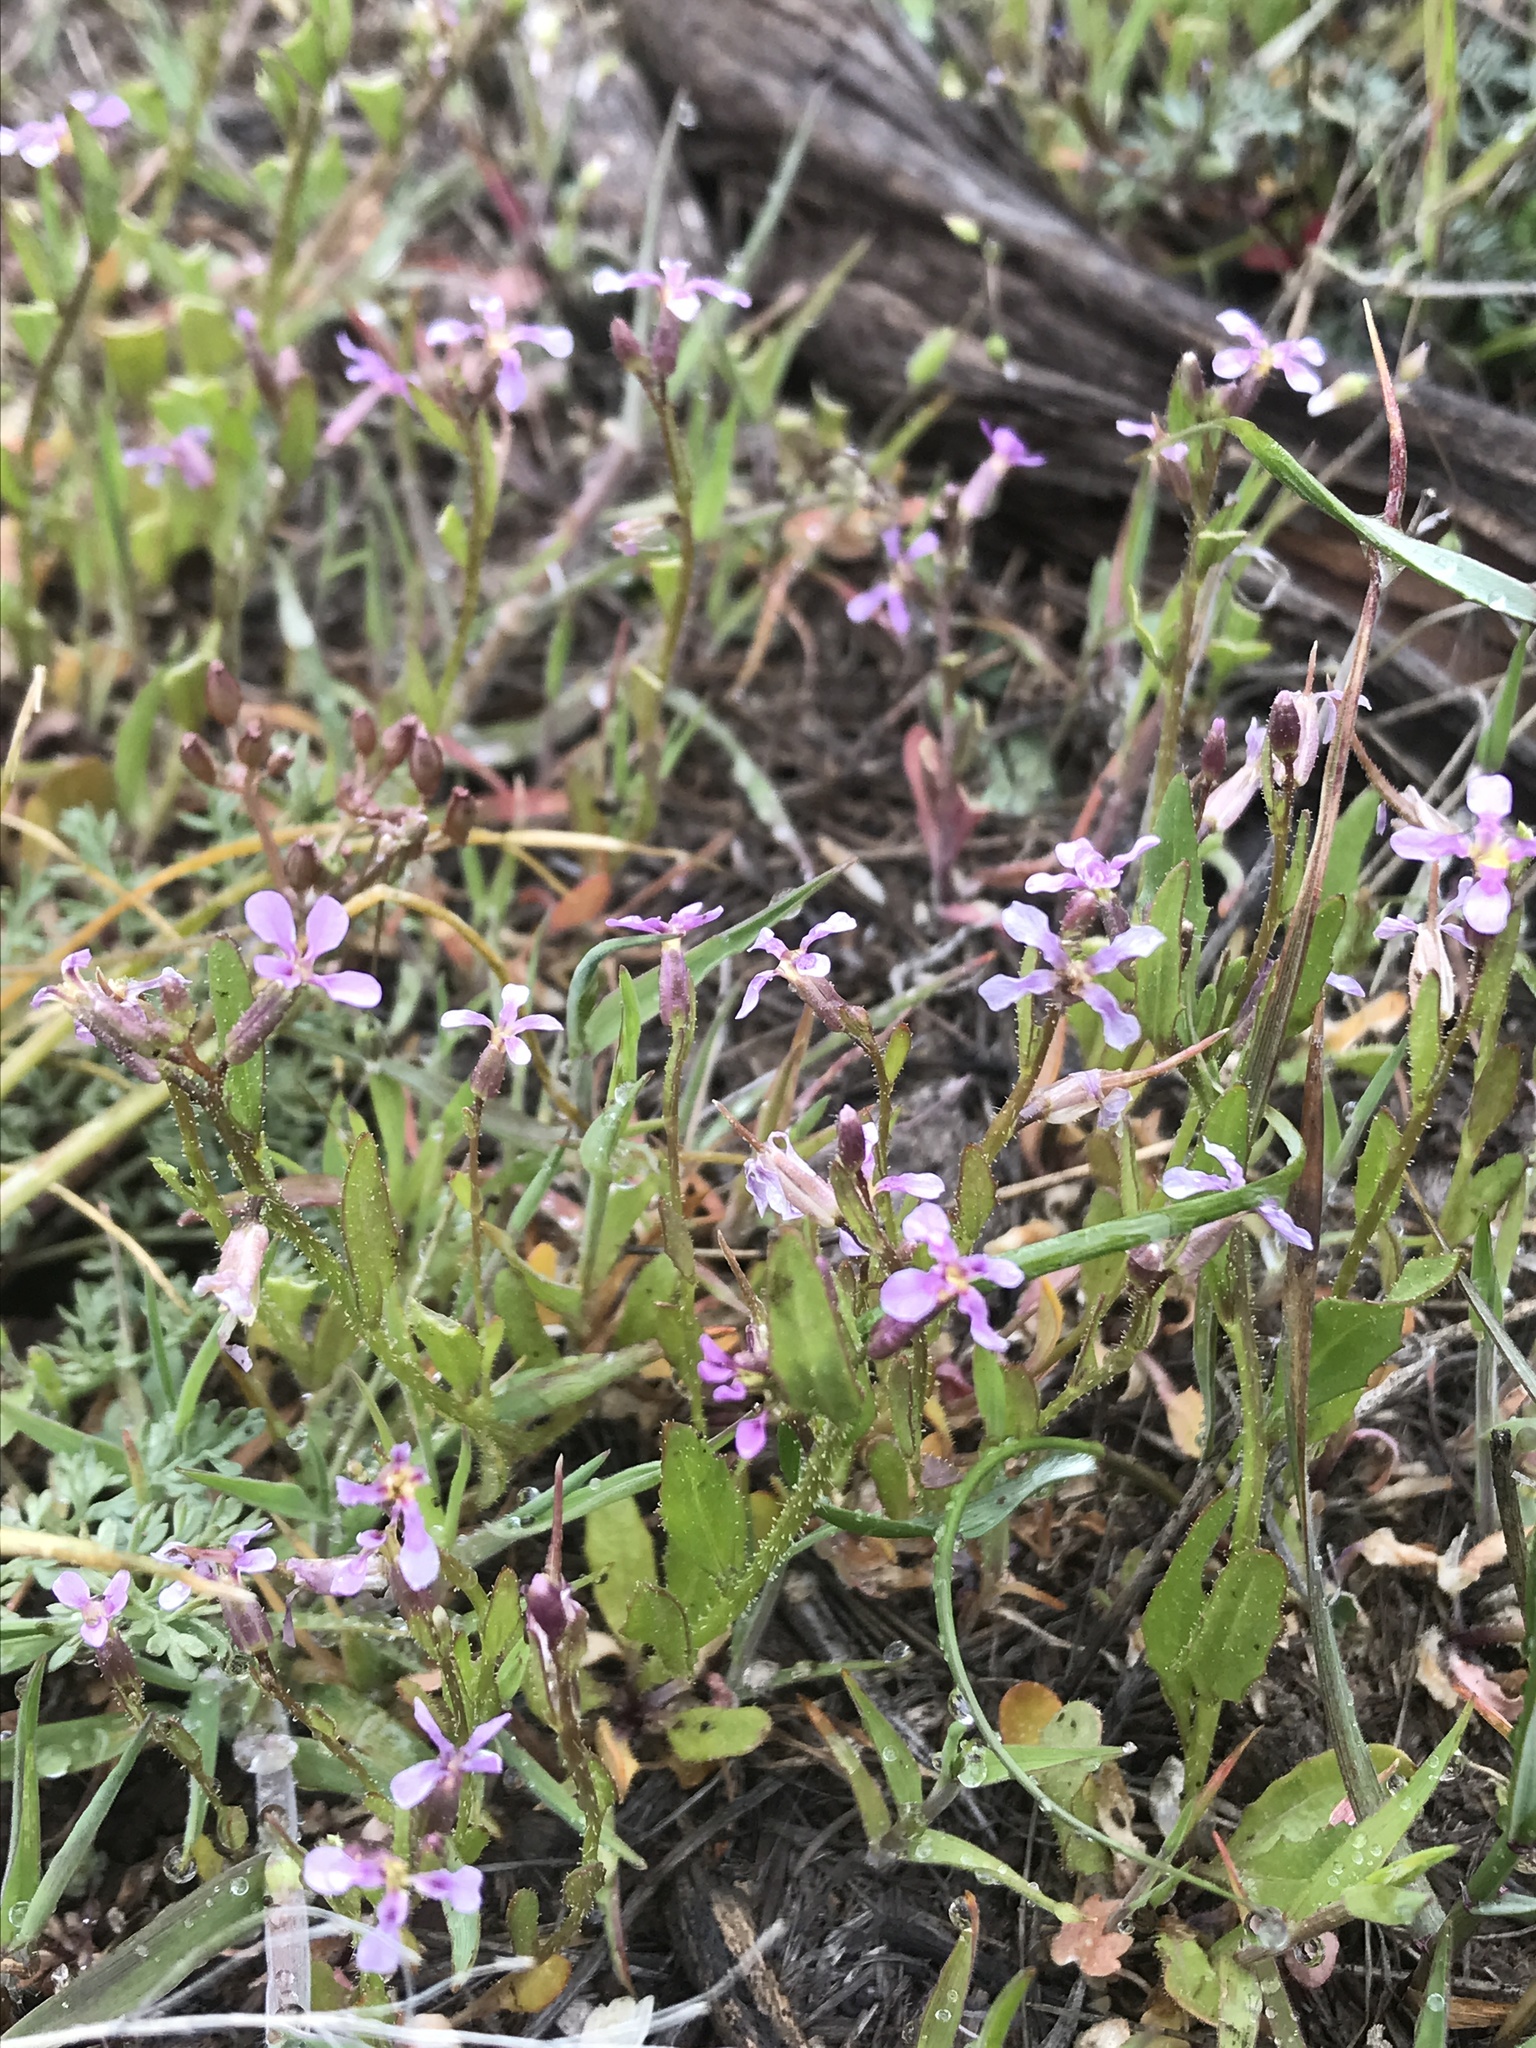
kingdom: Plantae
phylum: Tracheophyta
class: Magnoliopsida
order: Brassicales
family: Brassicaceae
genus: Chorispora
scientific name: Chorispora tenella
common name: Crossflower
